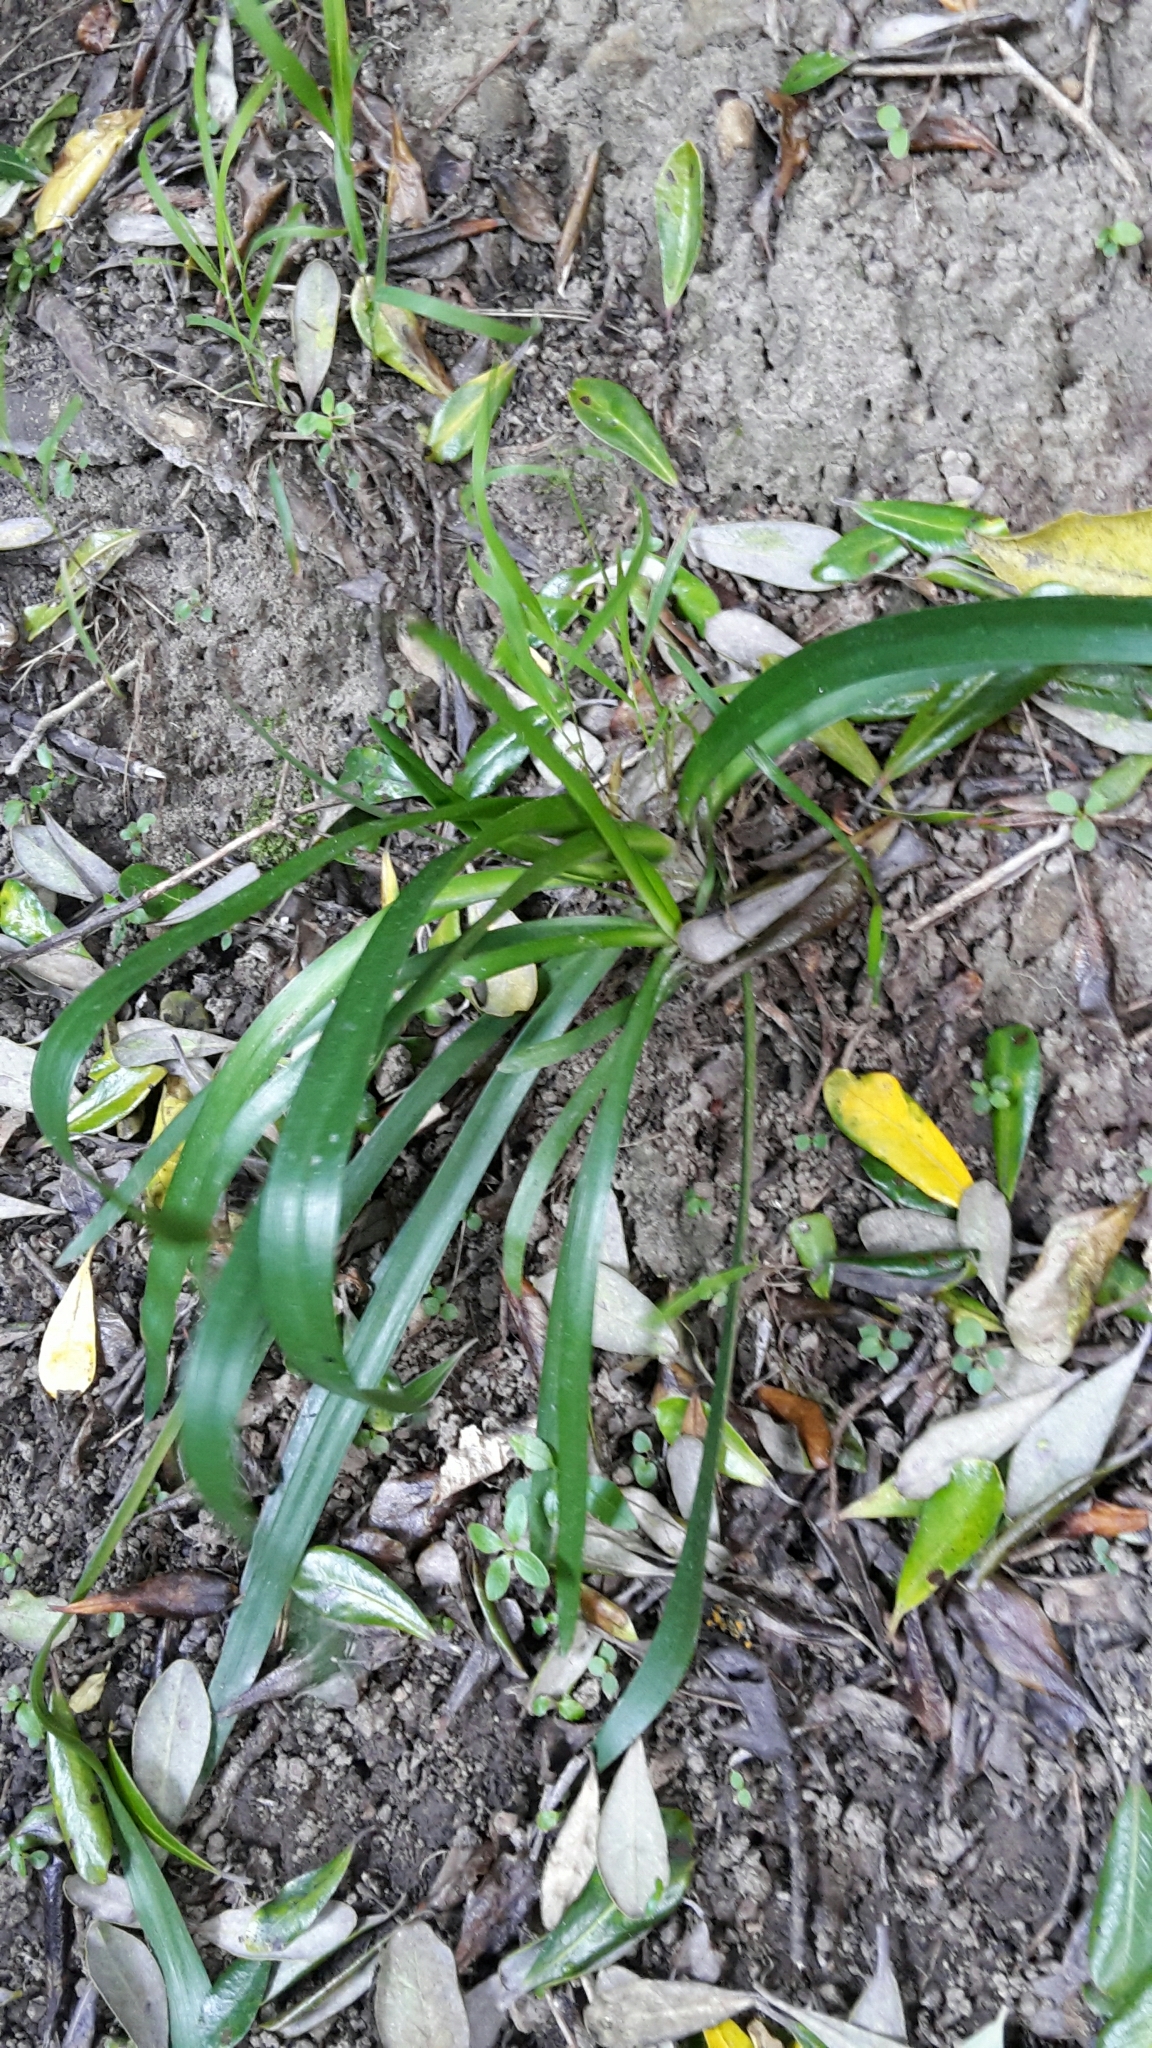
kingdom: Plantae
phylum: Tracheophyta
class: Liliopsida
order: Asparagales
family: Amaryllidaceae
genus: Agapanthus
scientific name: Agapanthus praecox
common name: African-lily
